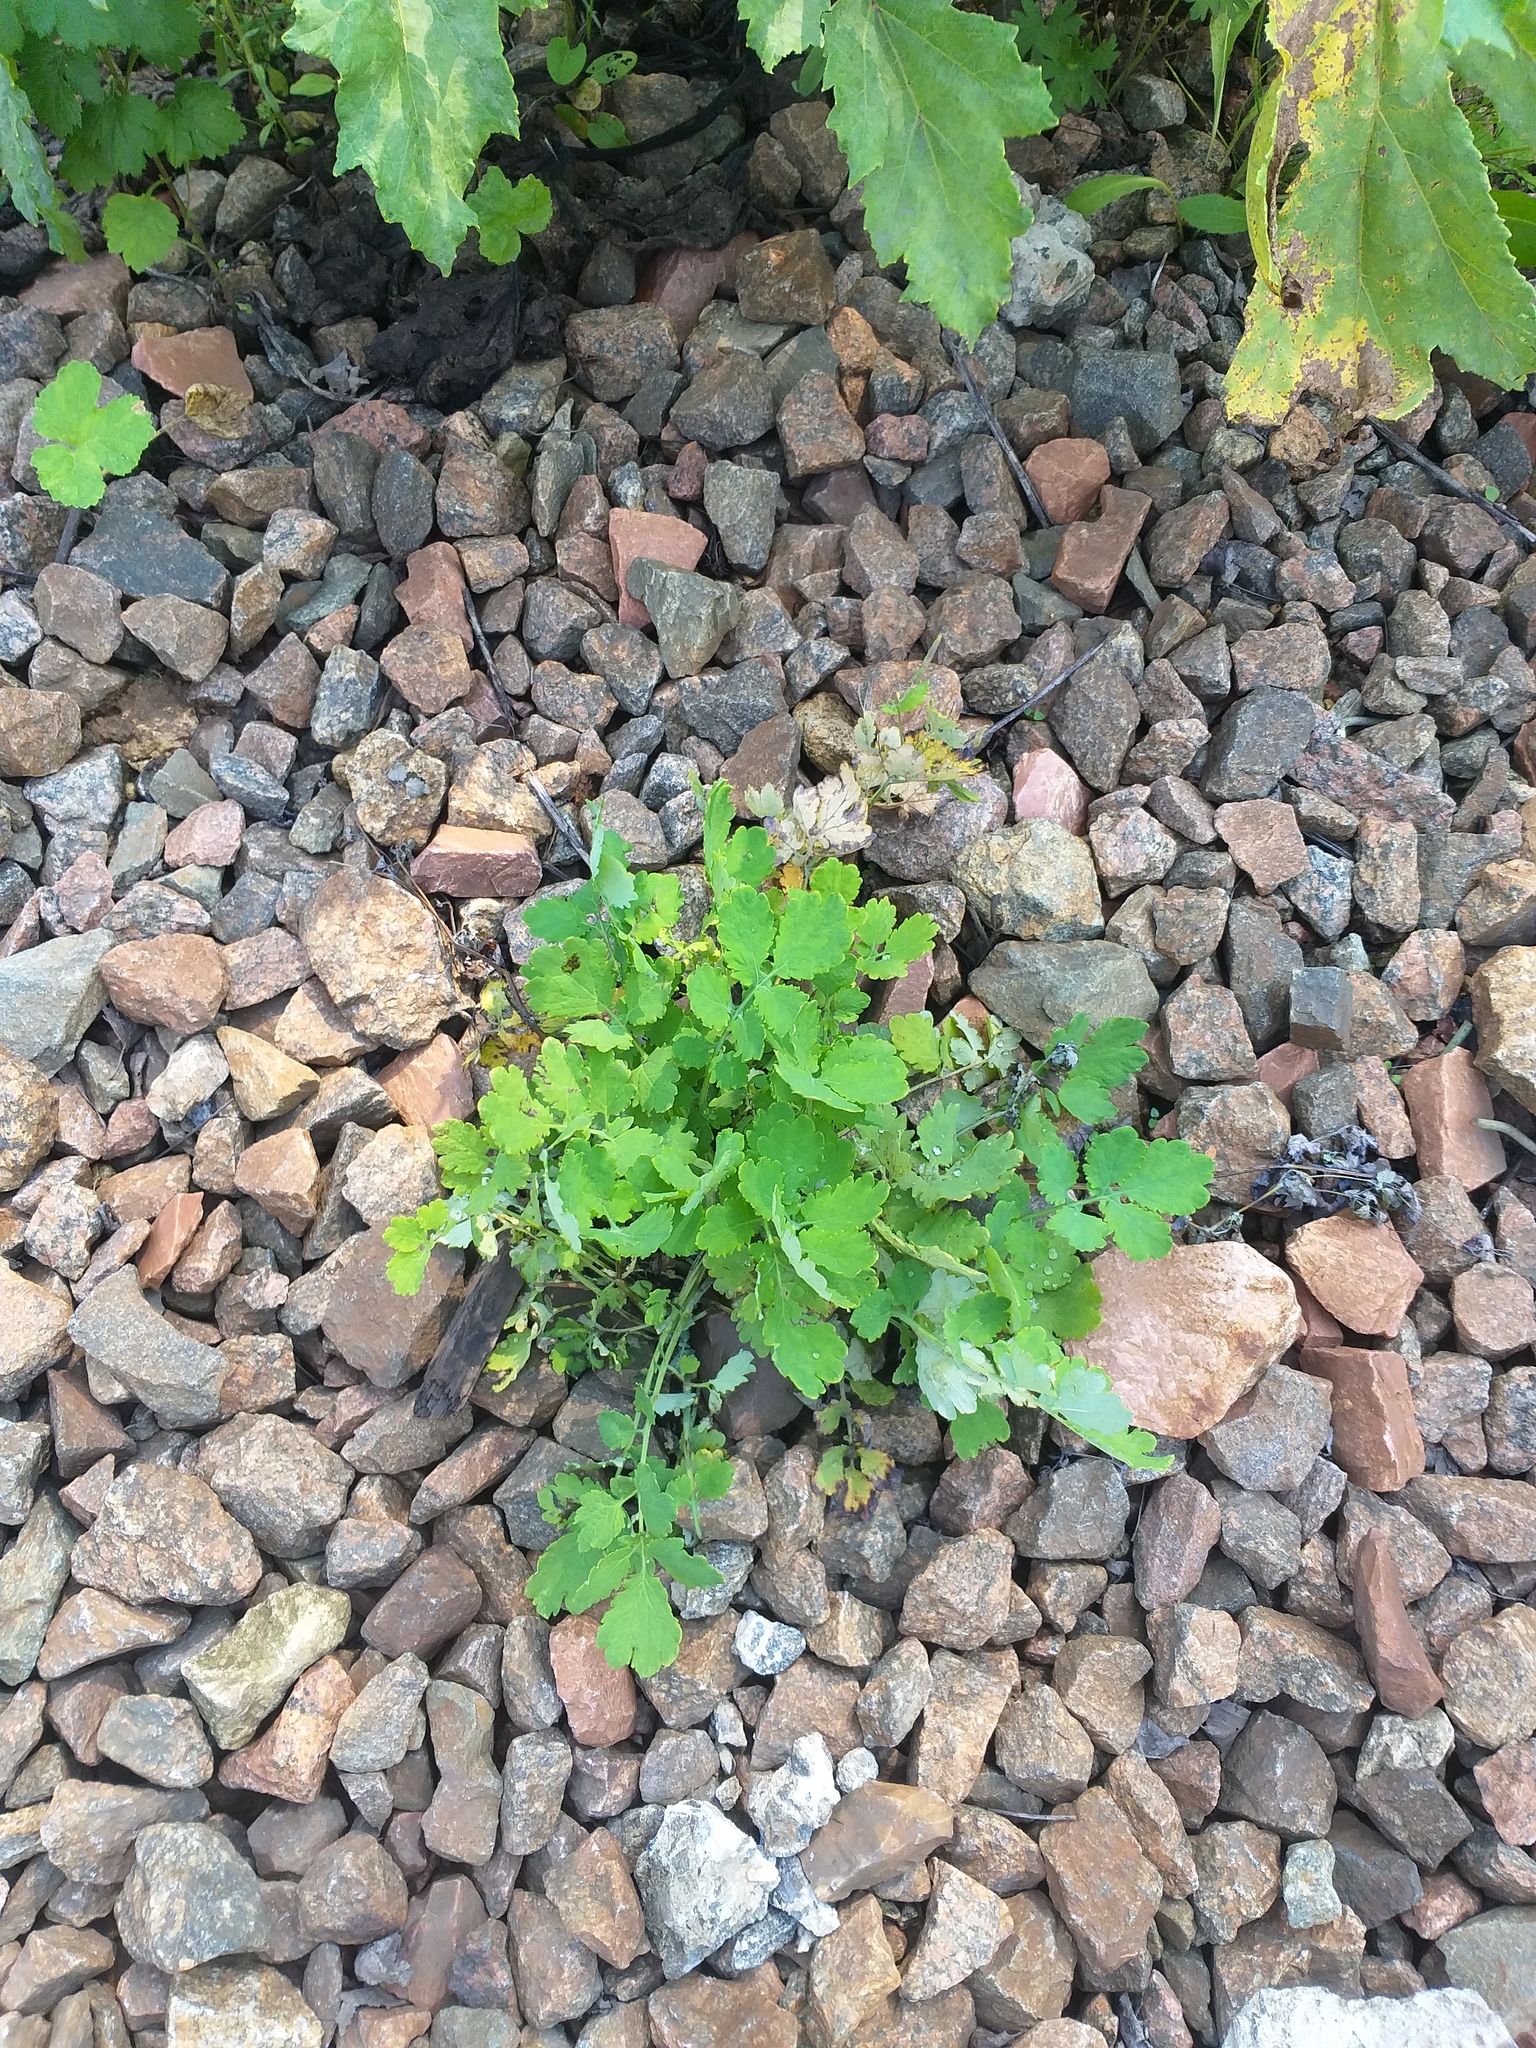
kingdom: Plantae
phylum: Tracheophyta
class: Magnoliopsida
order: Ranunculales
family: Papaveraceae
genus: Chelidonium
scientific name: Chelidonium majus
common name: Greater celandine
